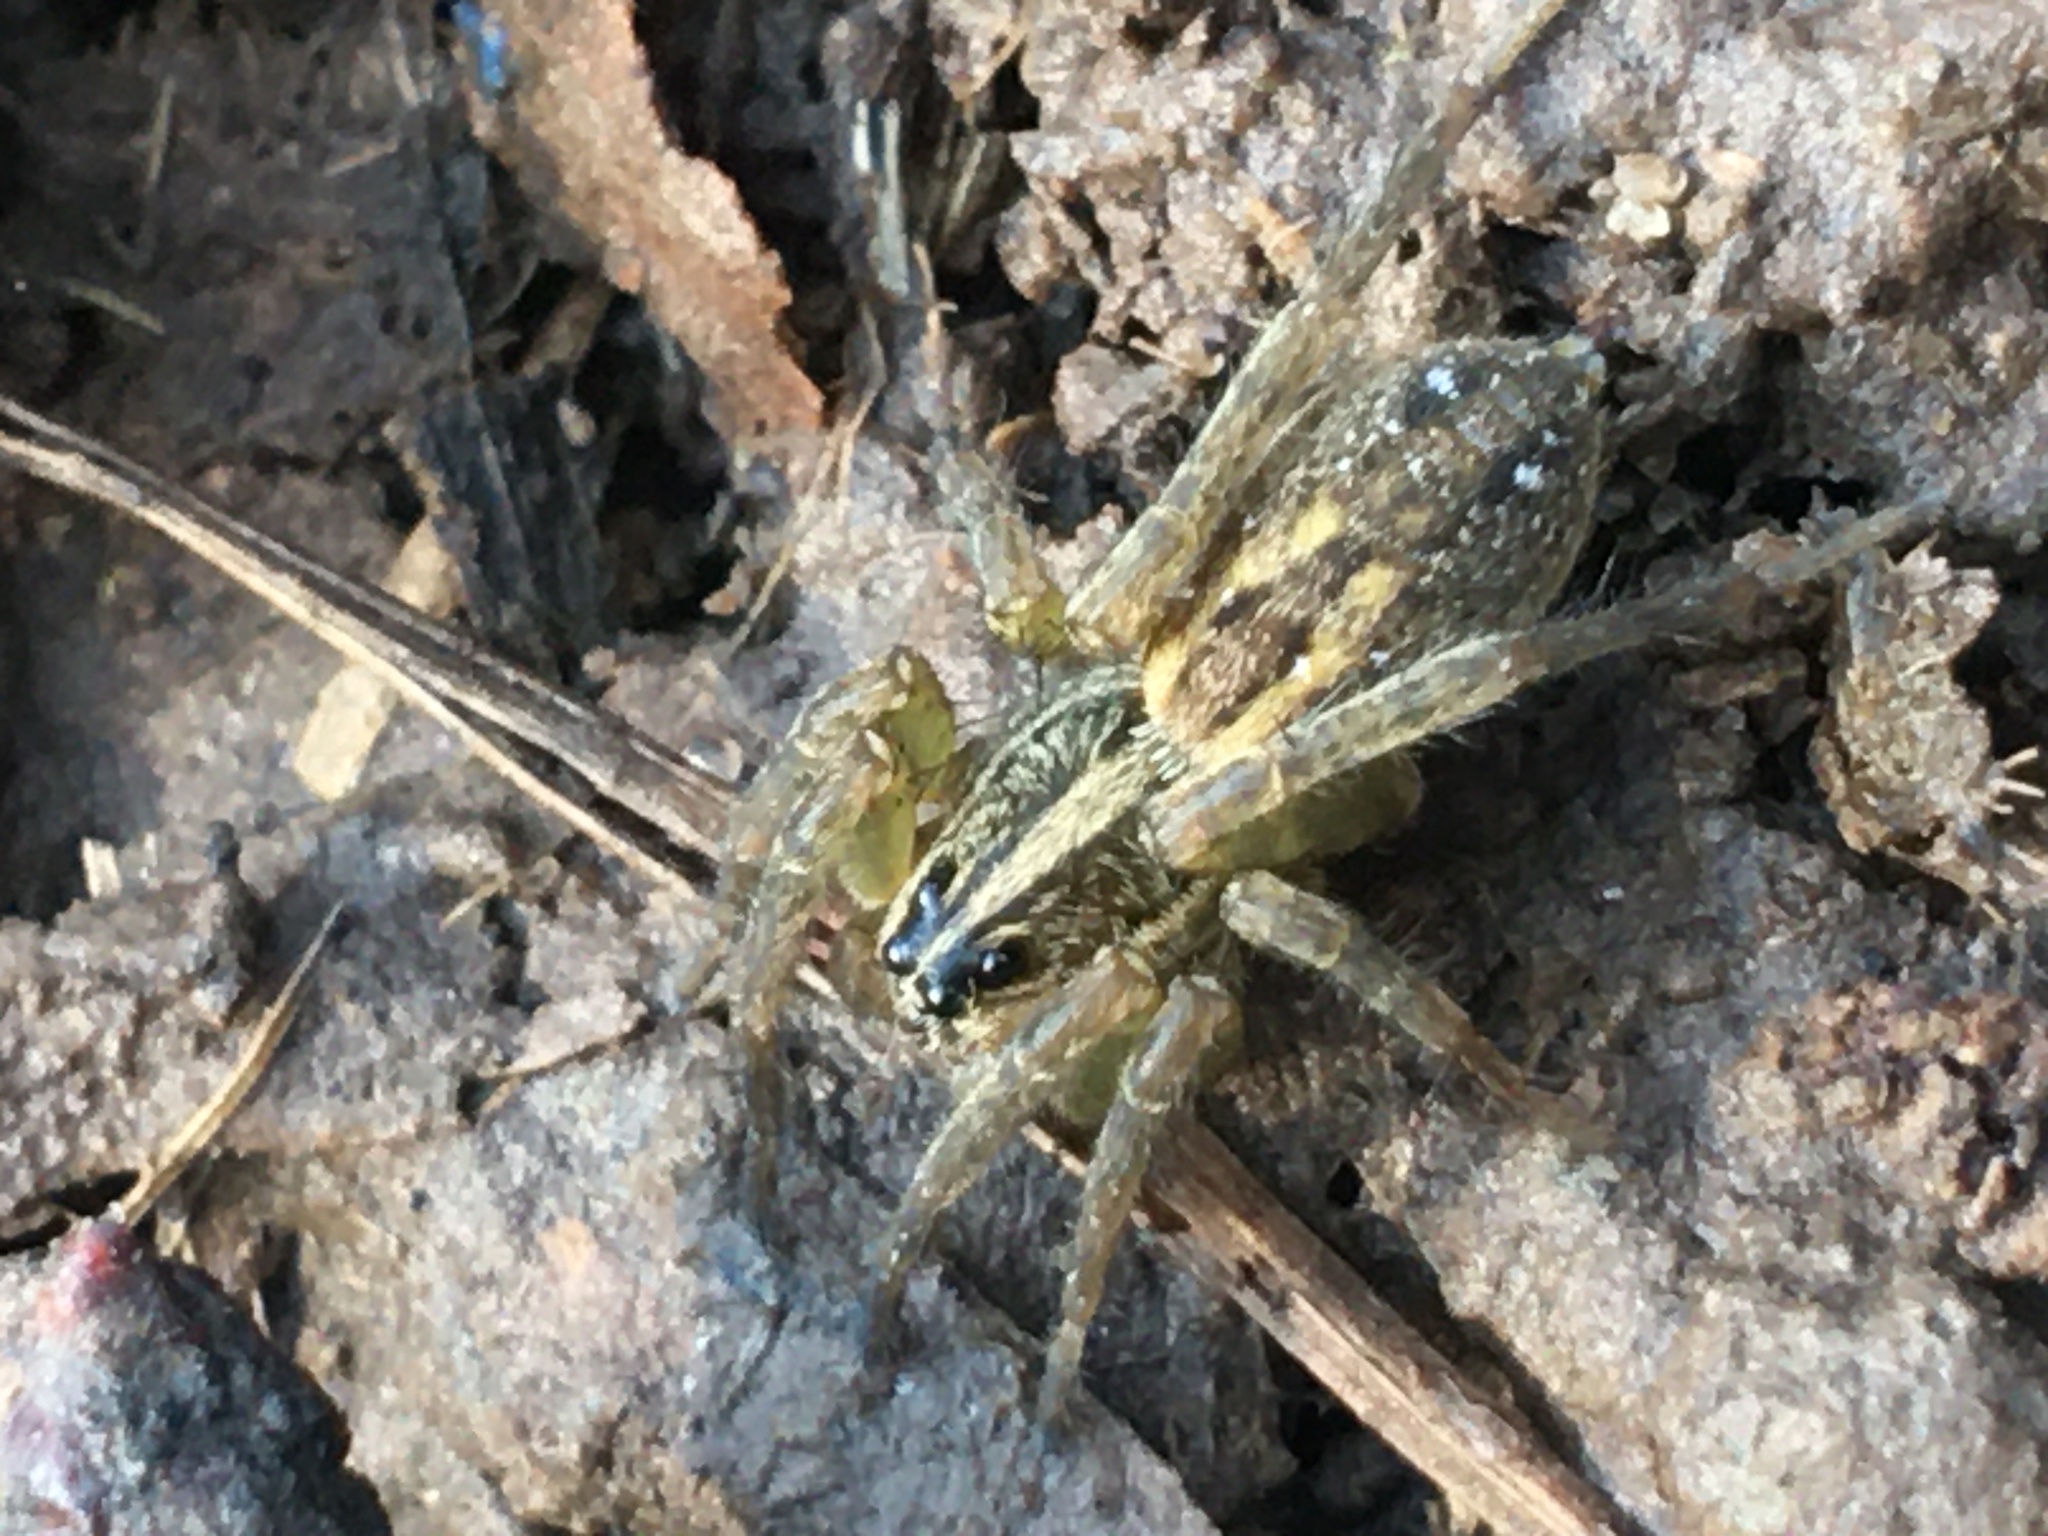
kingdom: Animalia
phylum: Arthropoda
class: Arachnida
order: Araneae
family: Lycosidae
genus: Tigrosa
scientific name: Tigrosa annexa
